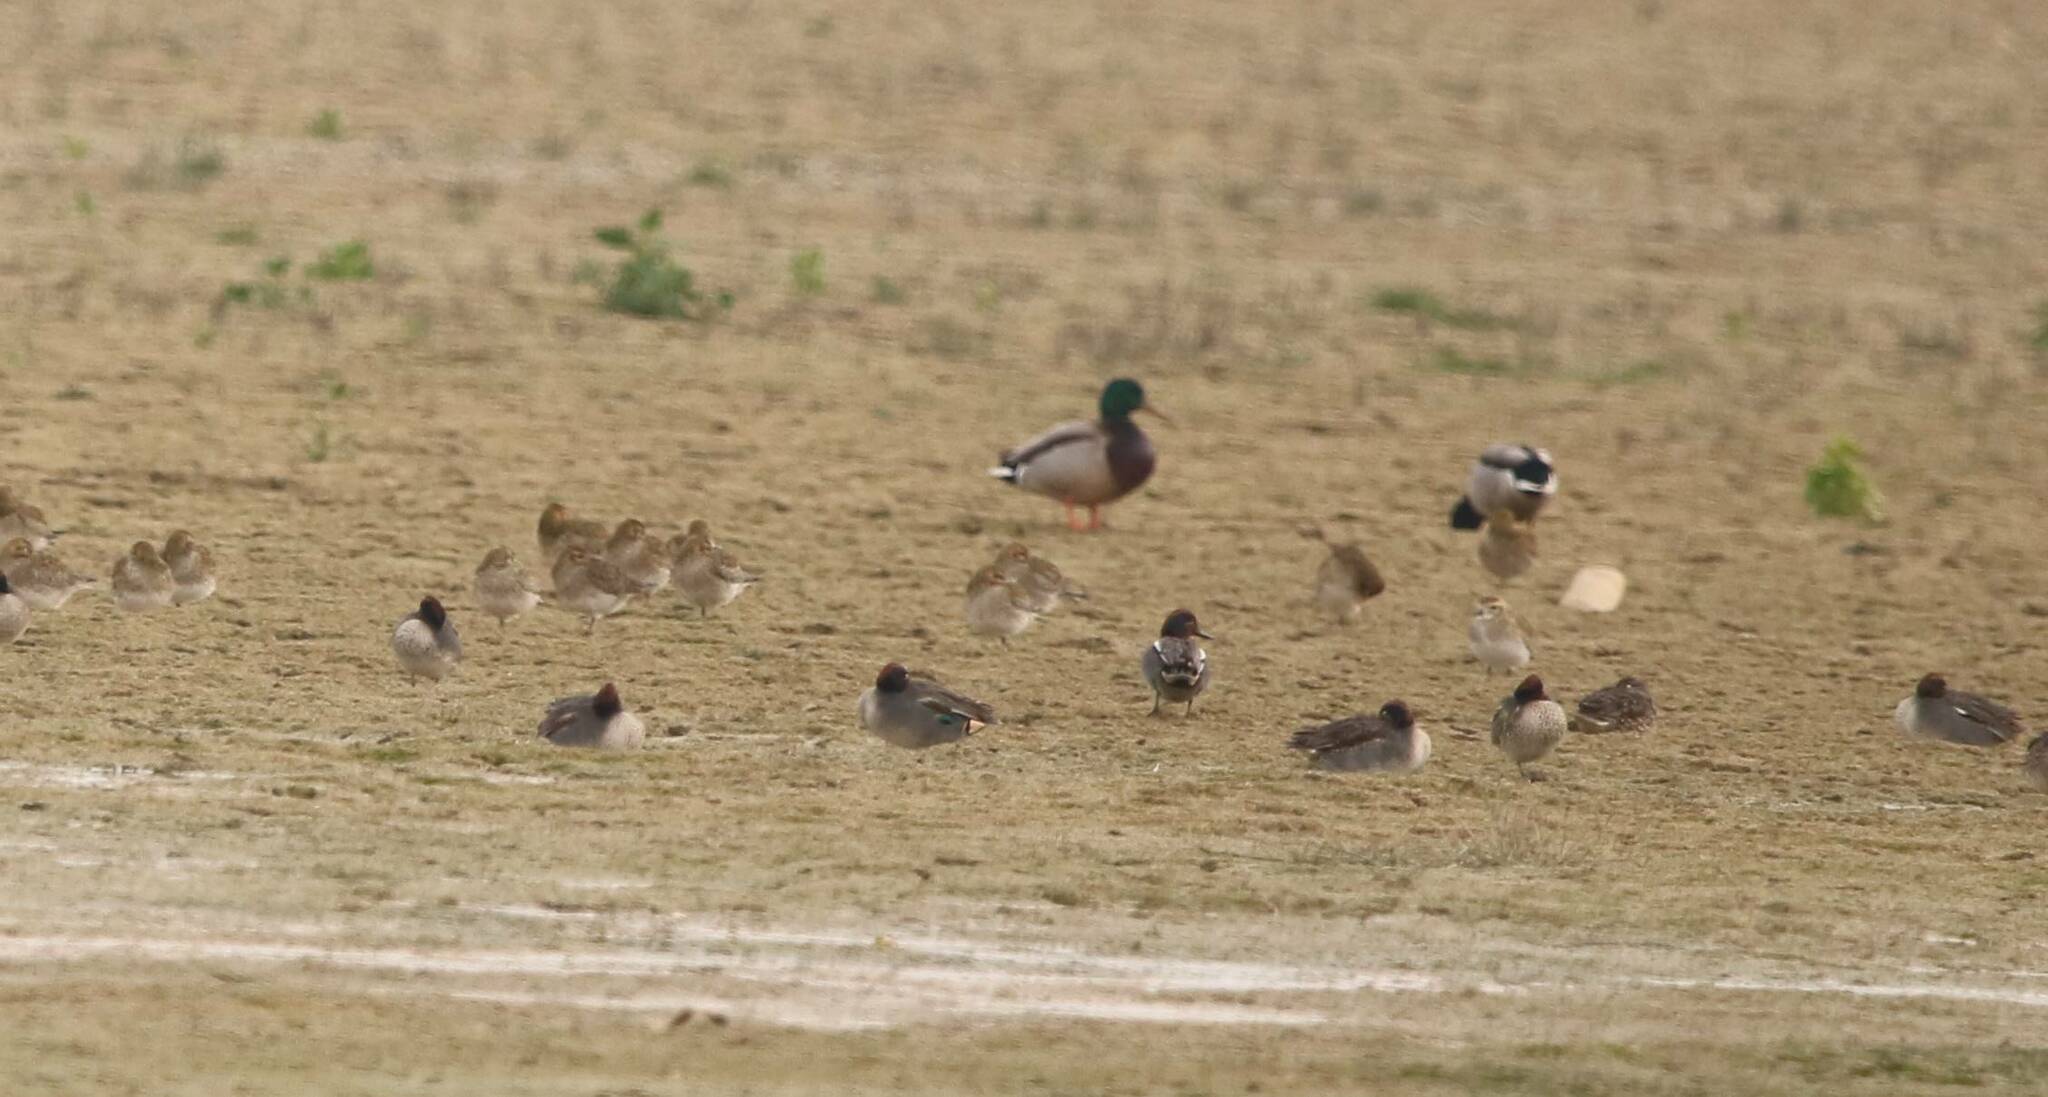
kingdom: Animalia
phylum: Chordata
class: Aves
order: Charadriiformes
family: Charadriidae
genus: Pluvialis
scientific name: Pluvialis apricaria
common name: European golden plover
